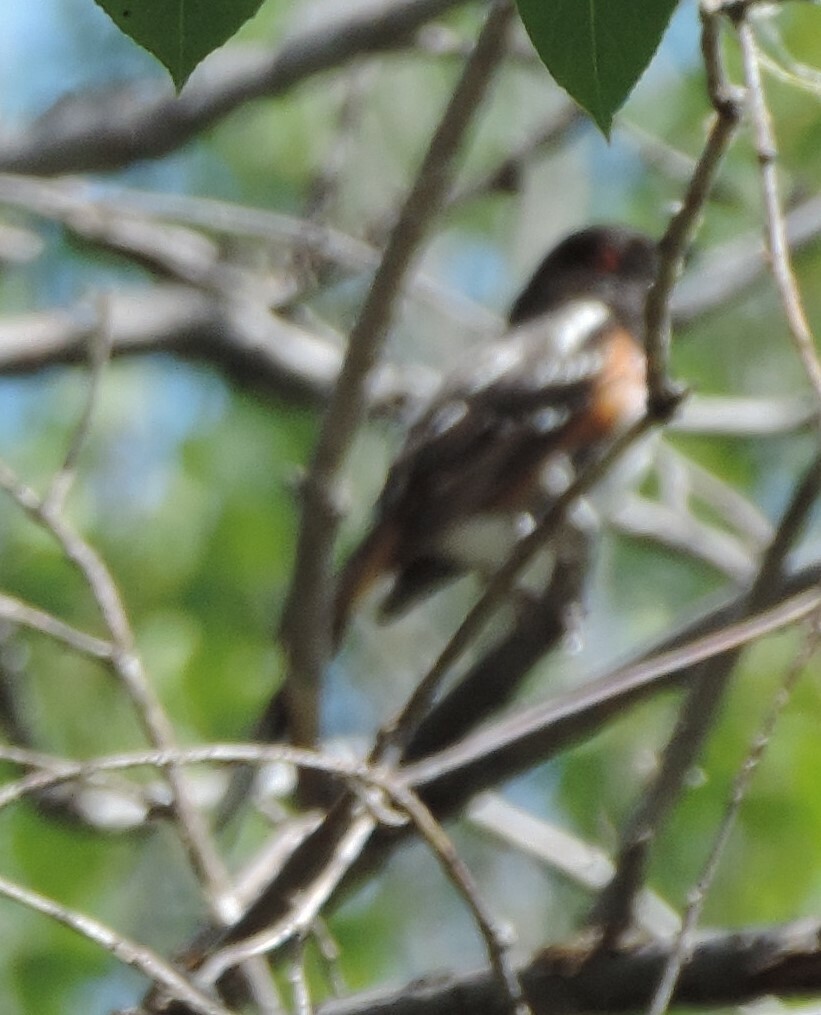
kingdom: Animalia
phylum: Chordata
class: Aves
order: Passeriformes
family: Passerellidae
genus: Pipilo
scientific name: Pipilo maculatus
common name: Spotted towhee
